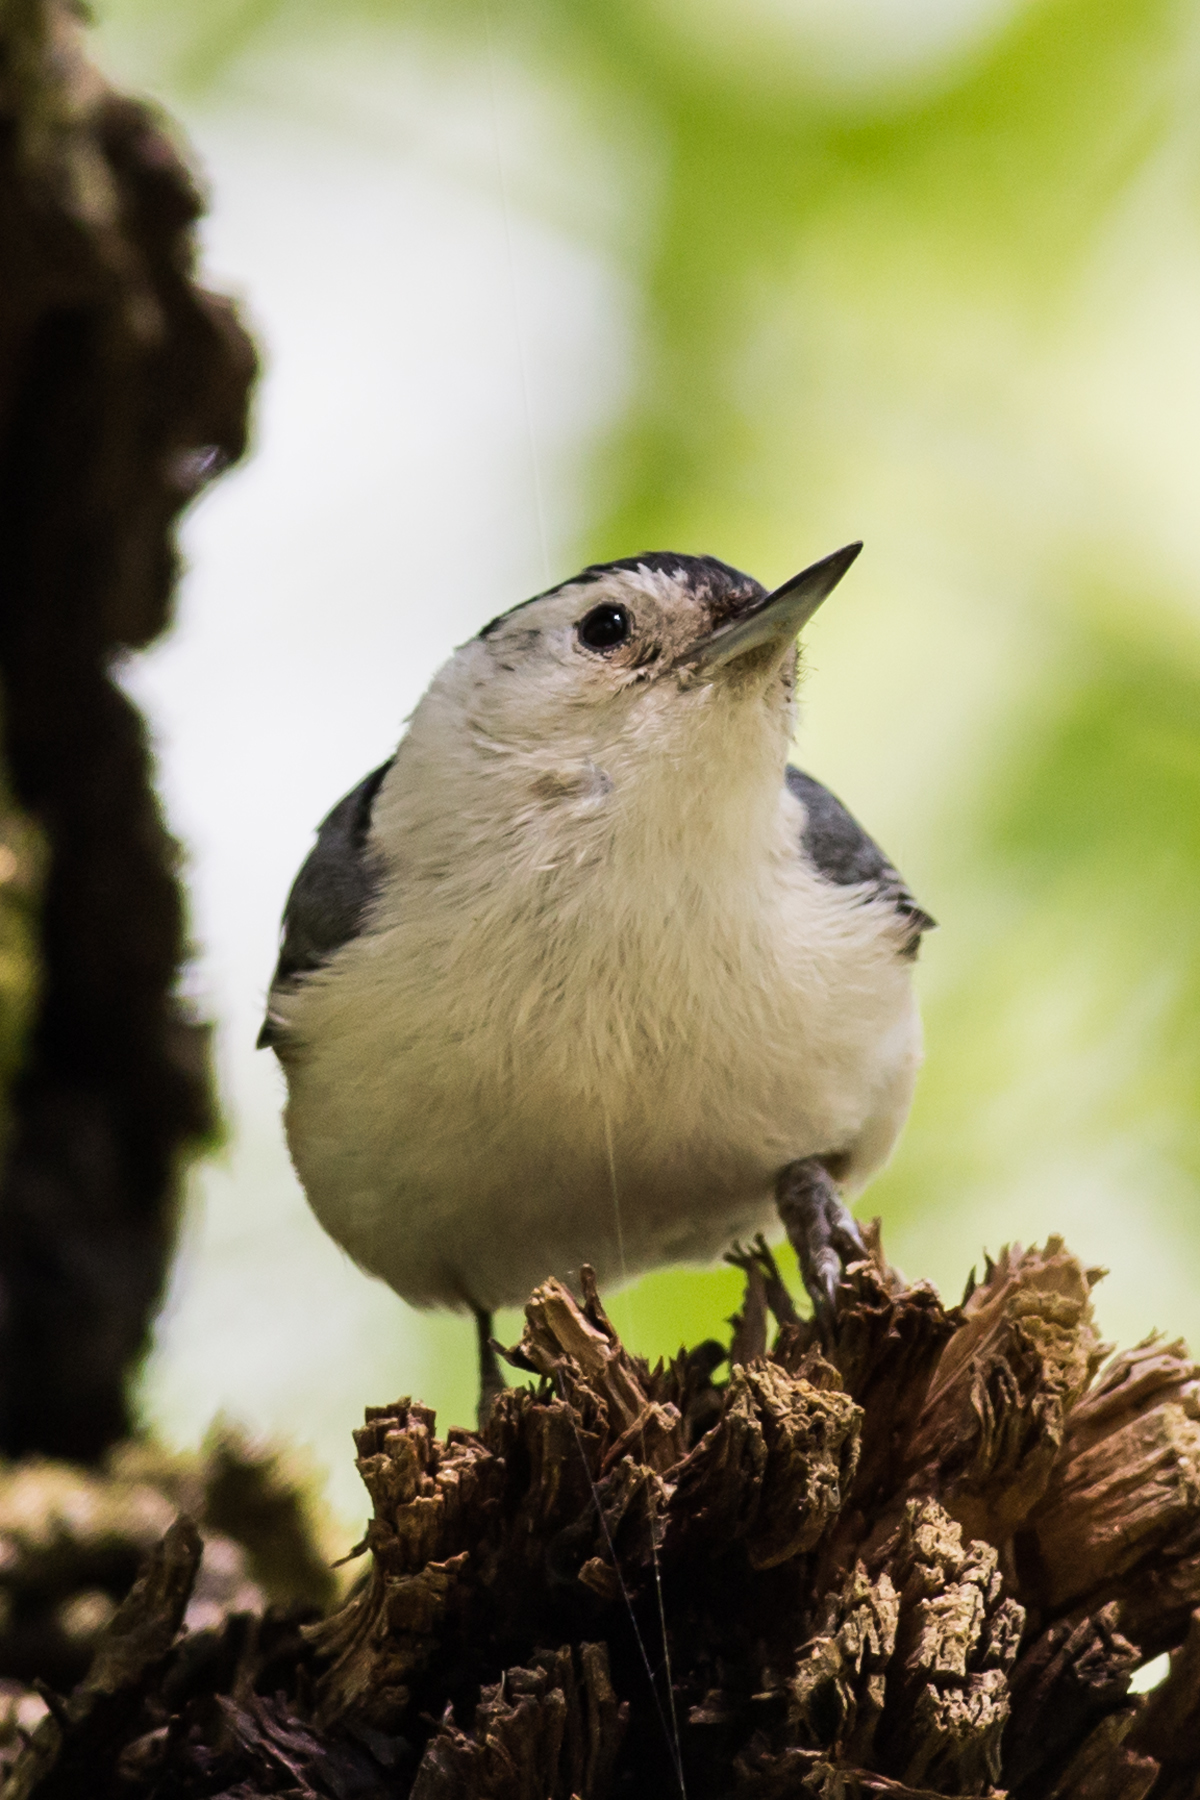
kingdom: Animalia
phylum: Chordata
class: Aves
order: Passeriformes
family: Sittidae
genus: Sitta
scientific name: Sitta carolinensis
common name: White-breasted nuthatch
